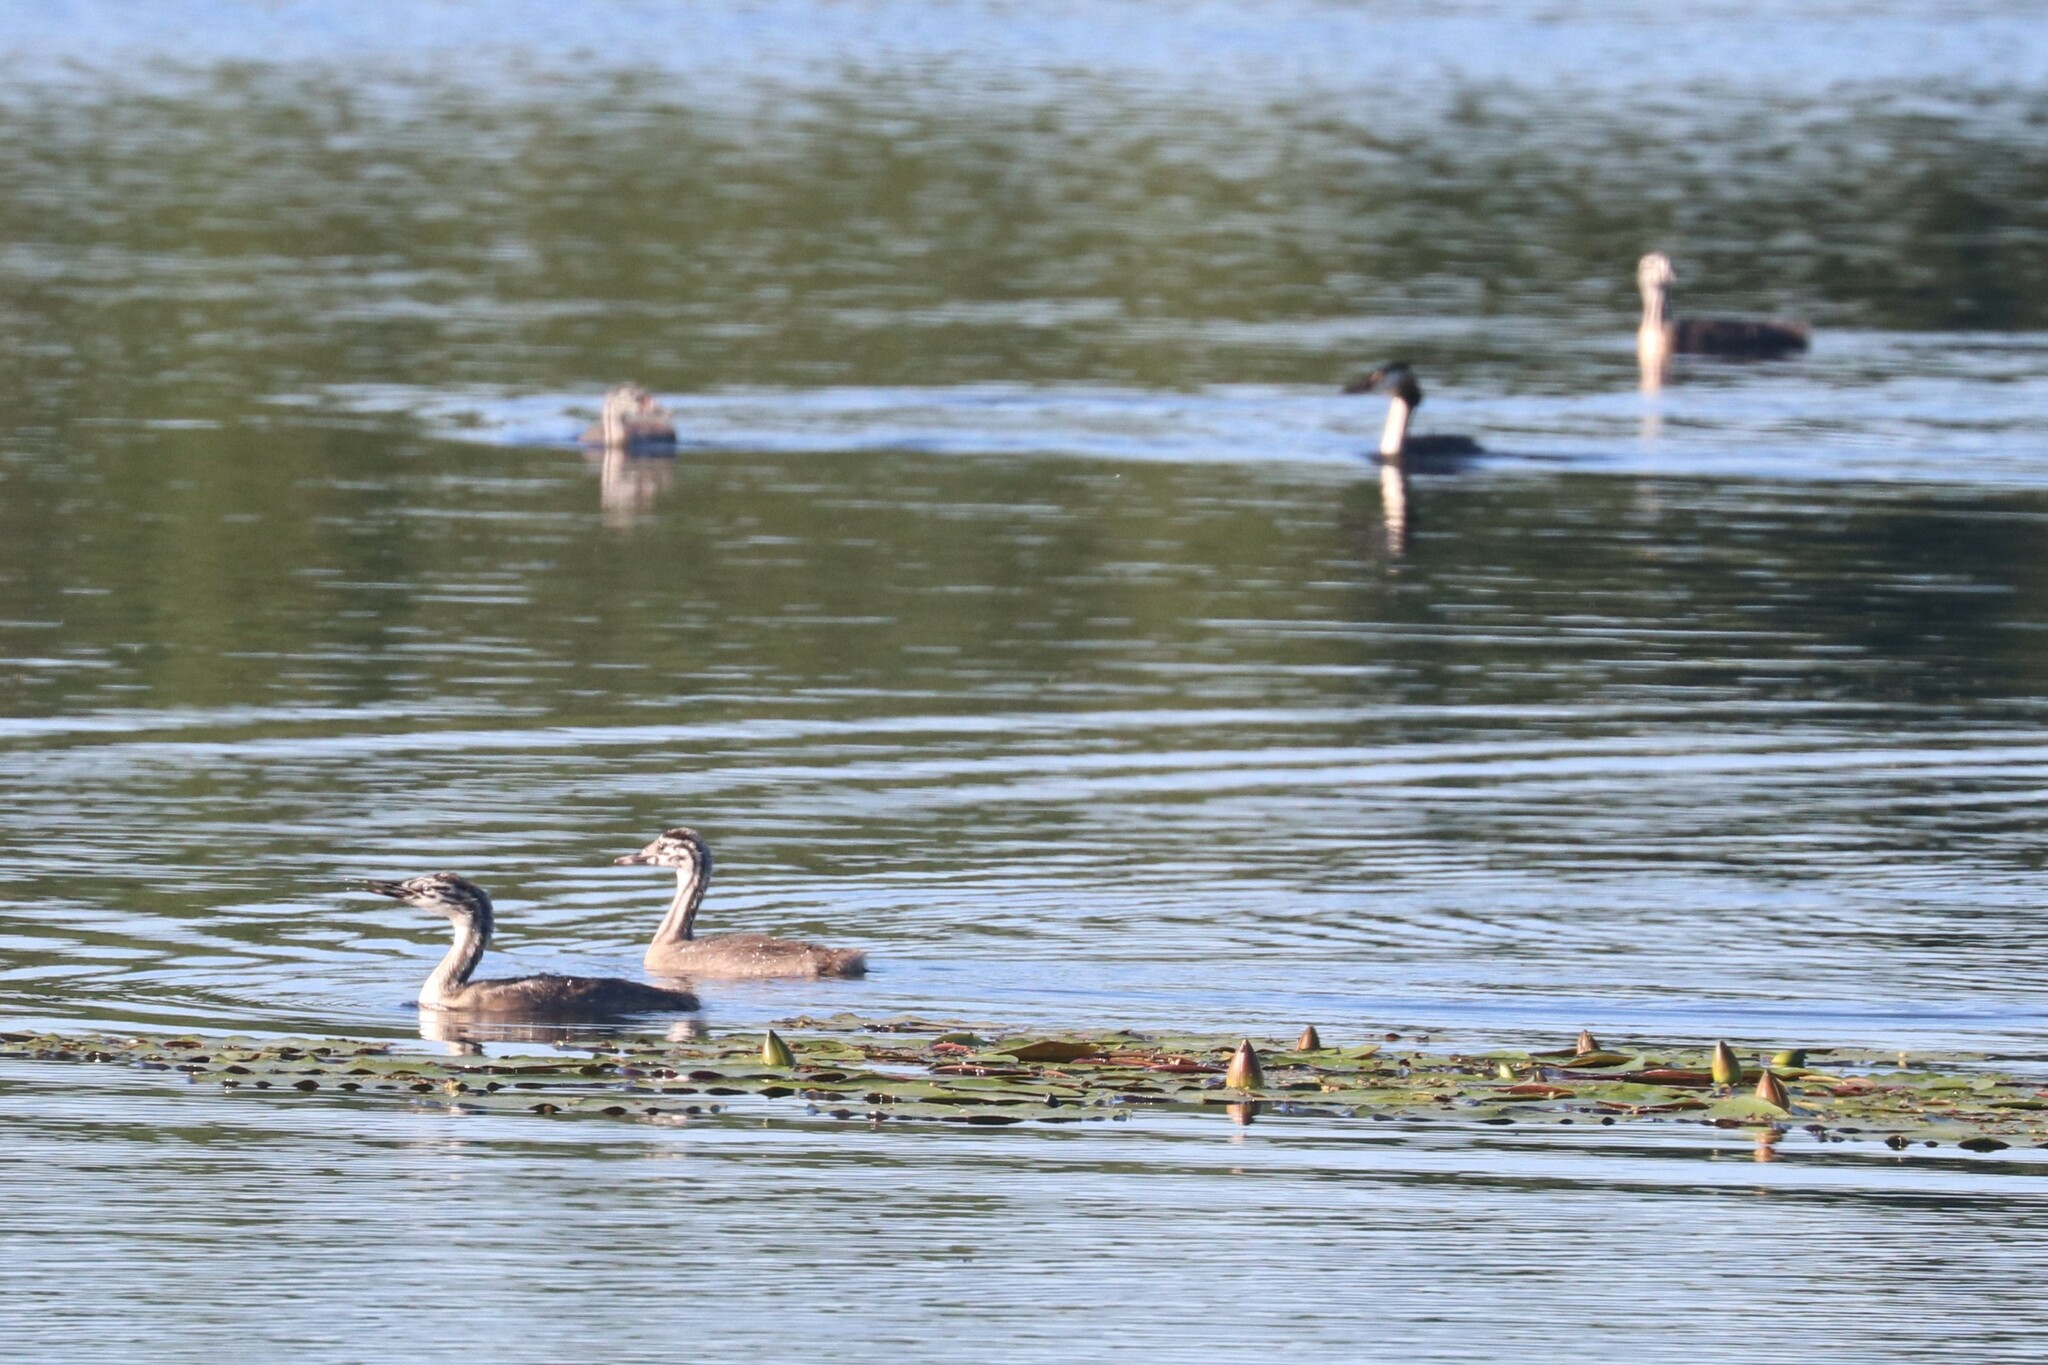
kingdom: Animalia
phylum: Chordata
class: Aves
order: Podicipediformes
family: Podicipedidae
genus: Podiceps
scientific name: Podiceps cristatus
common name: Great crested grebe
